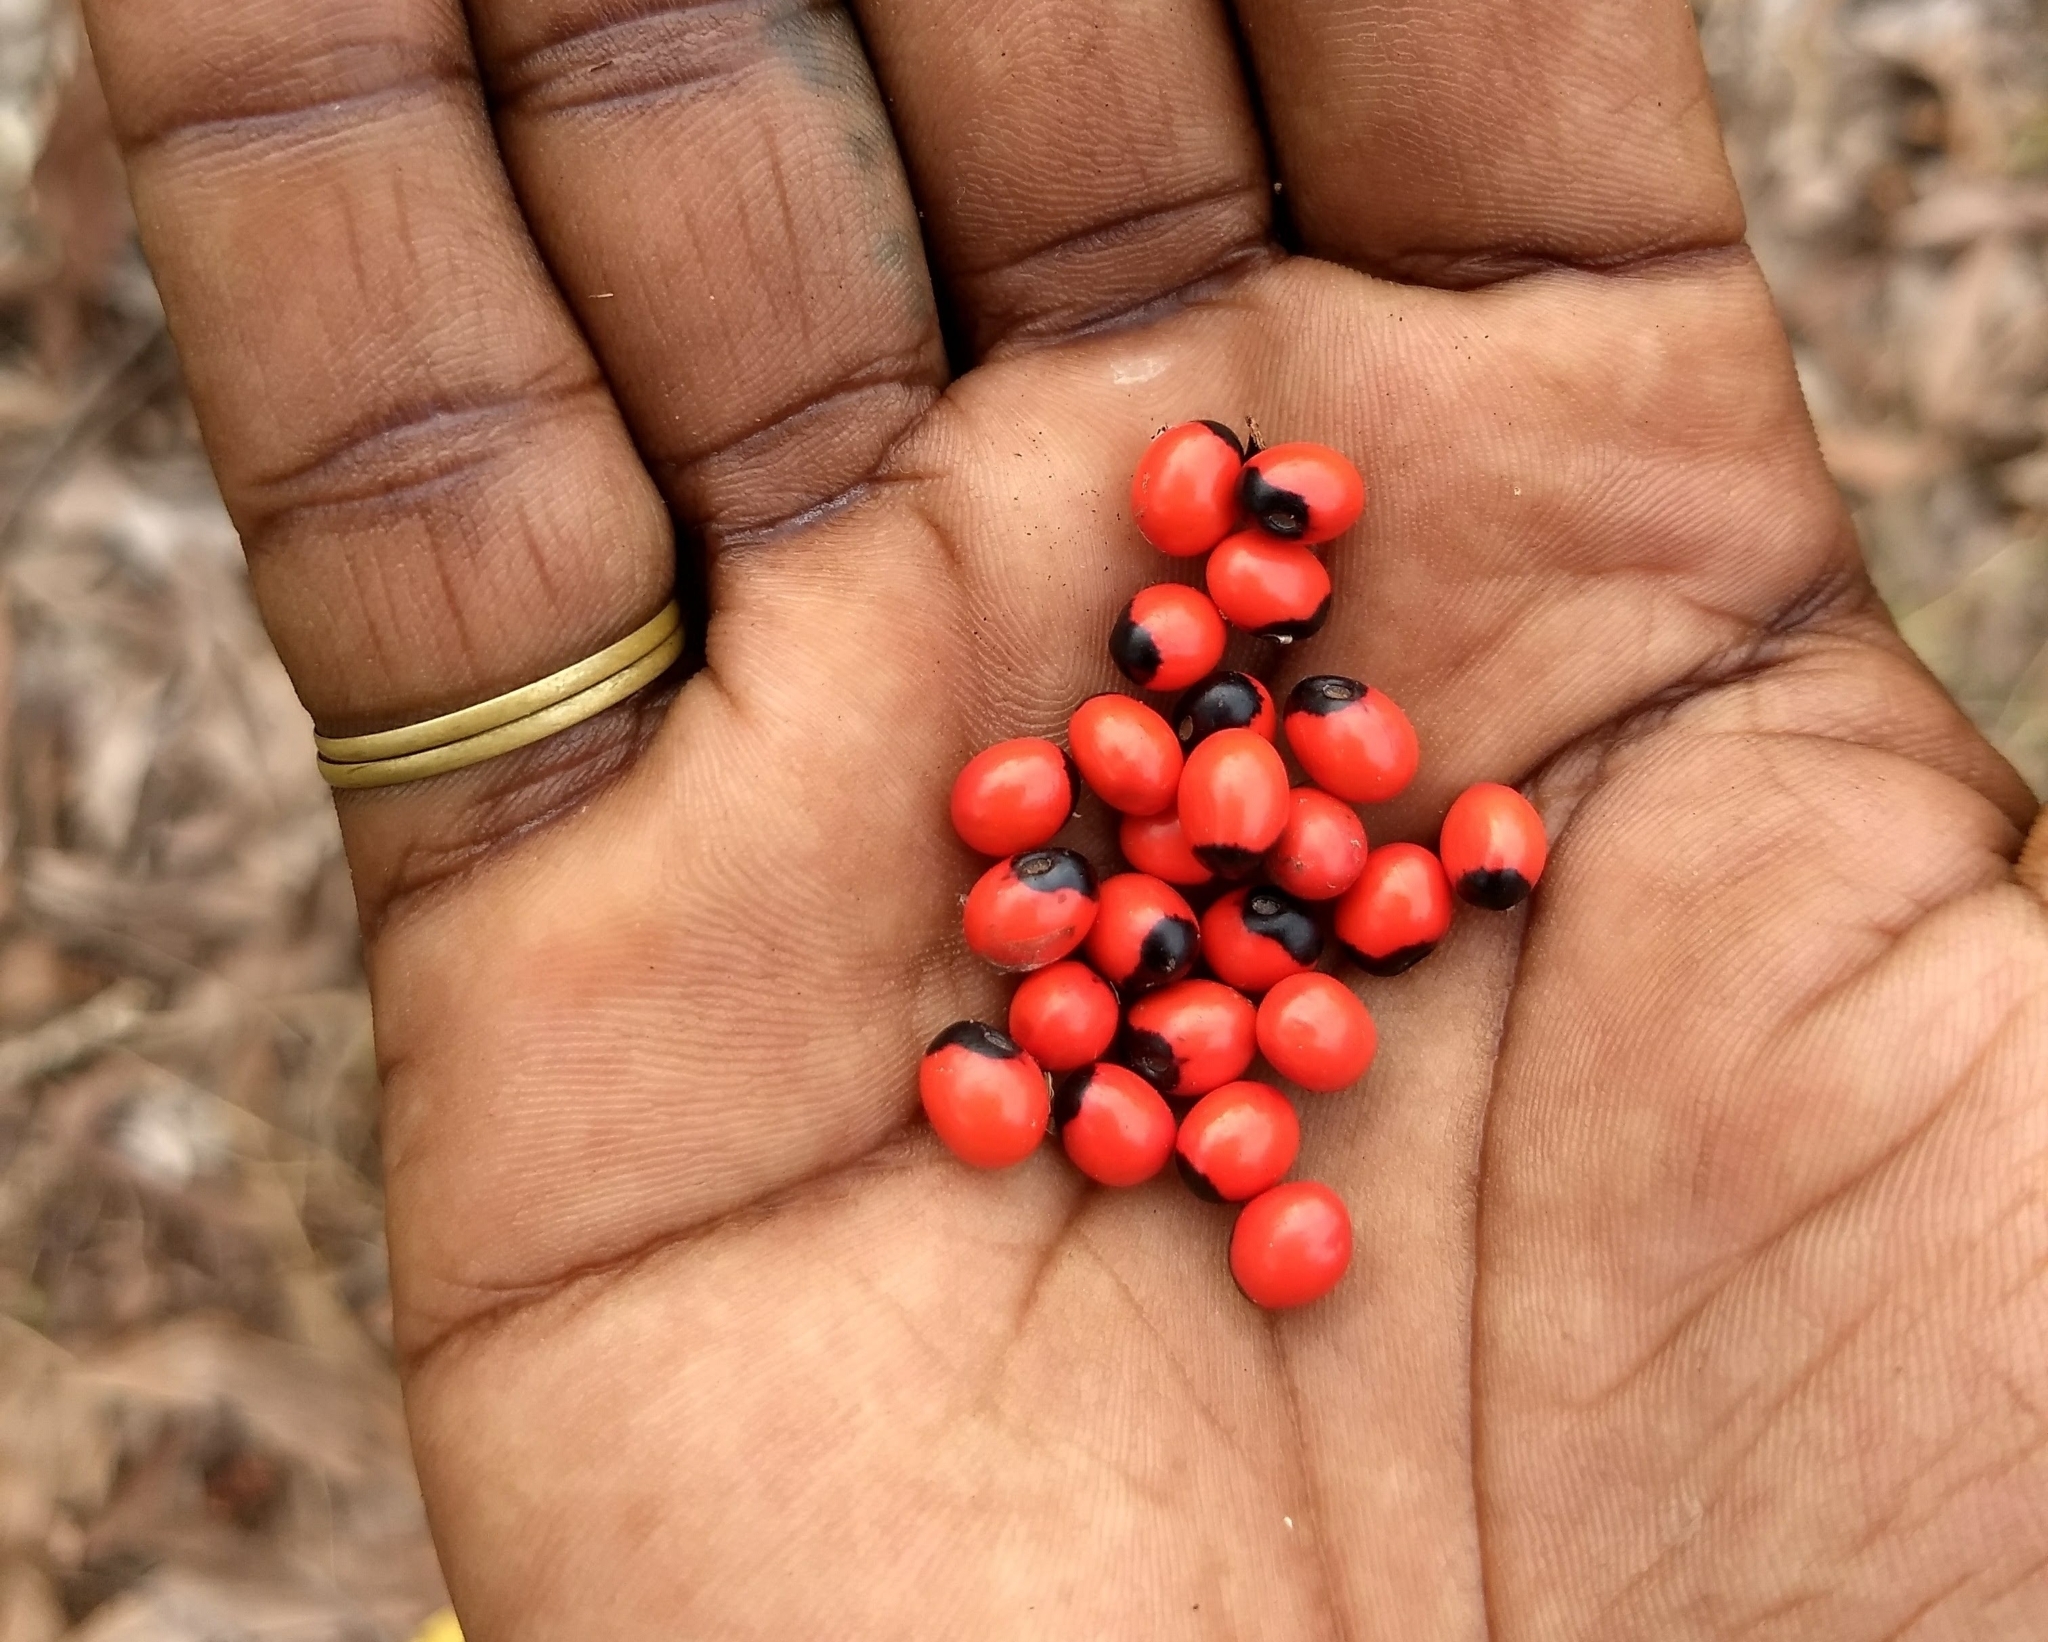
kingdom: Plantae
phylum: Tracheophyta
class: Magnoliopsida
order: Fabales
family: Fabaceae
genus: Abrus
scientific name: Abrus precatorius
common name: Rosarypea
